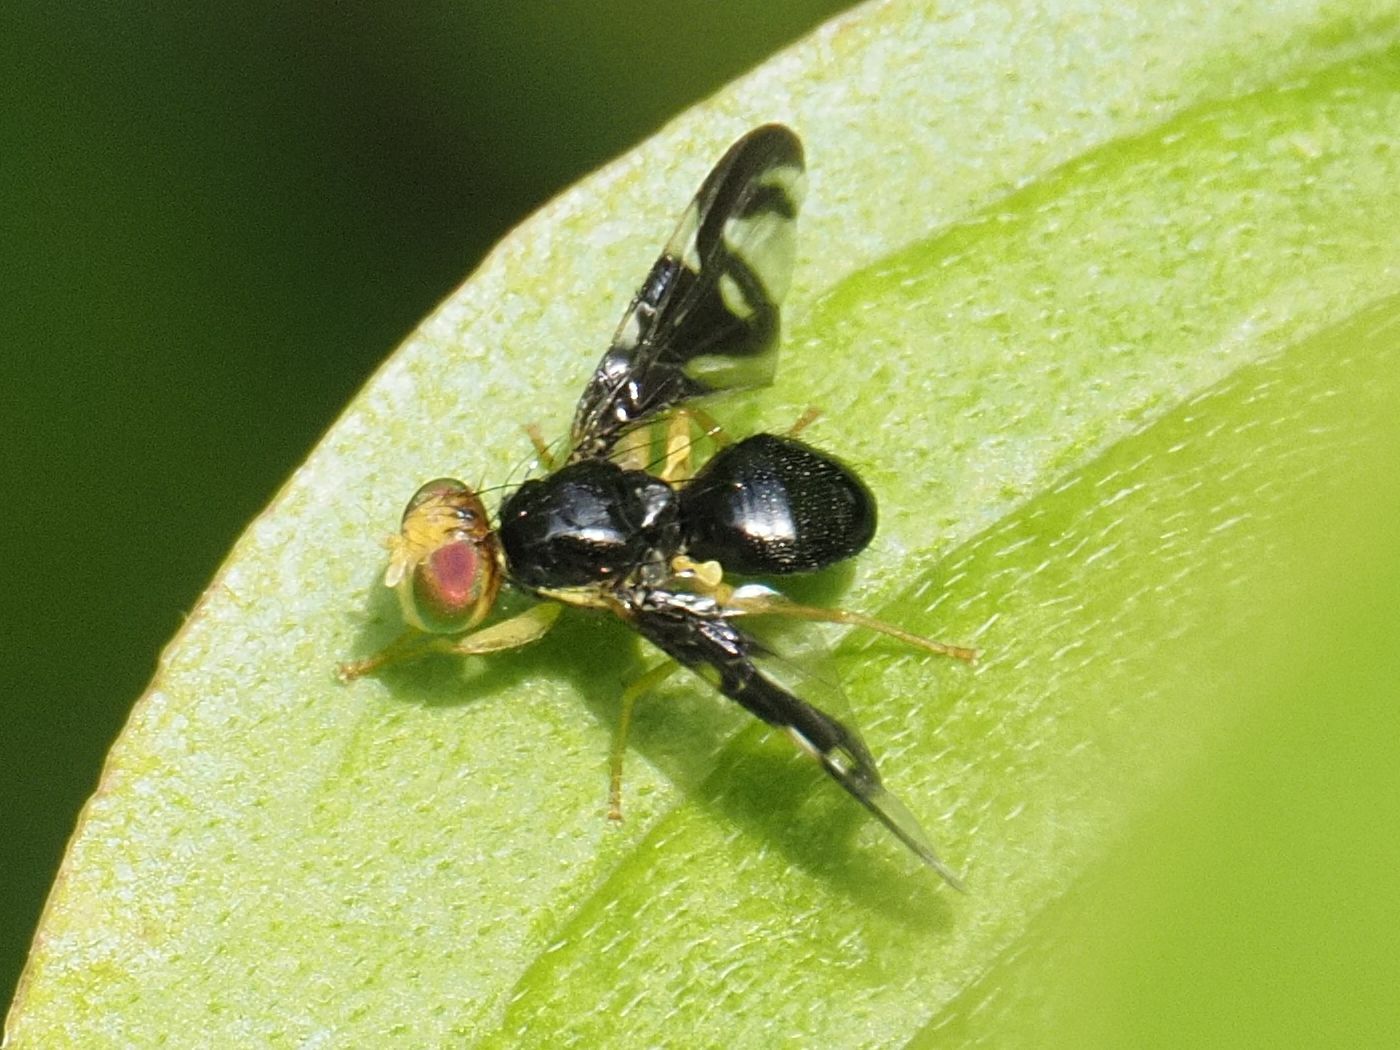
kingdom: Animalia
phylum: Arthropoda
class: Insecta
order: Diptera
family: Tephritidae
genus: Euleia
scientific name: Euleia heraclei
